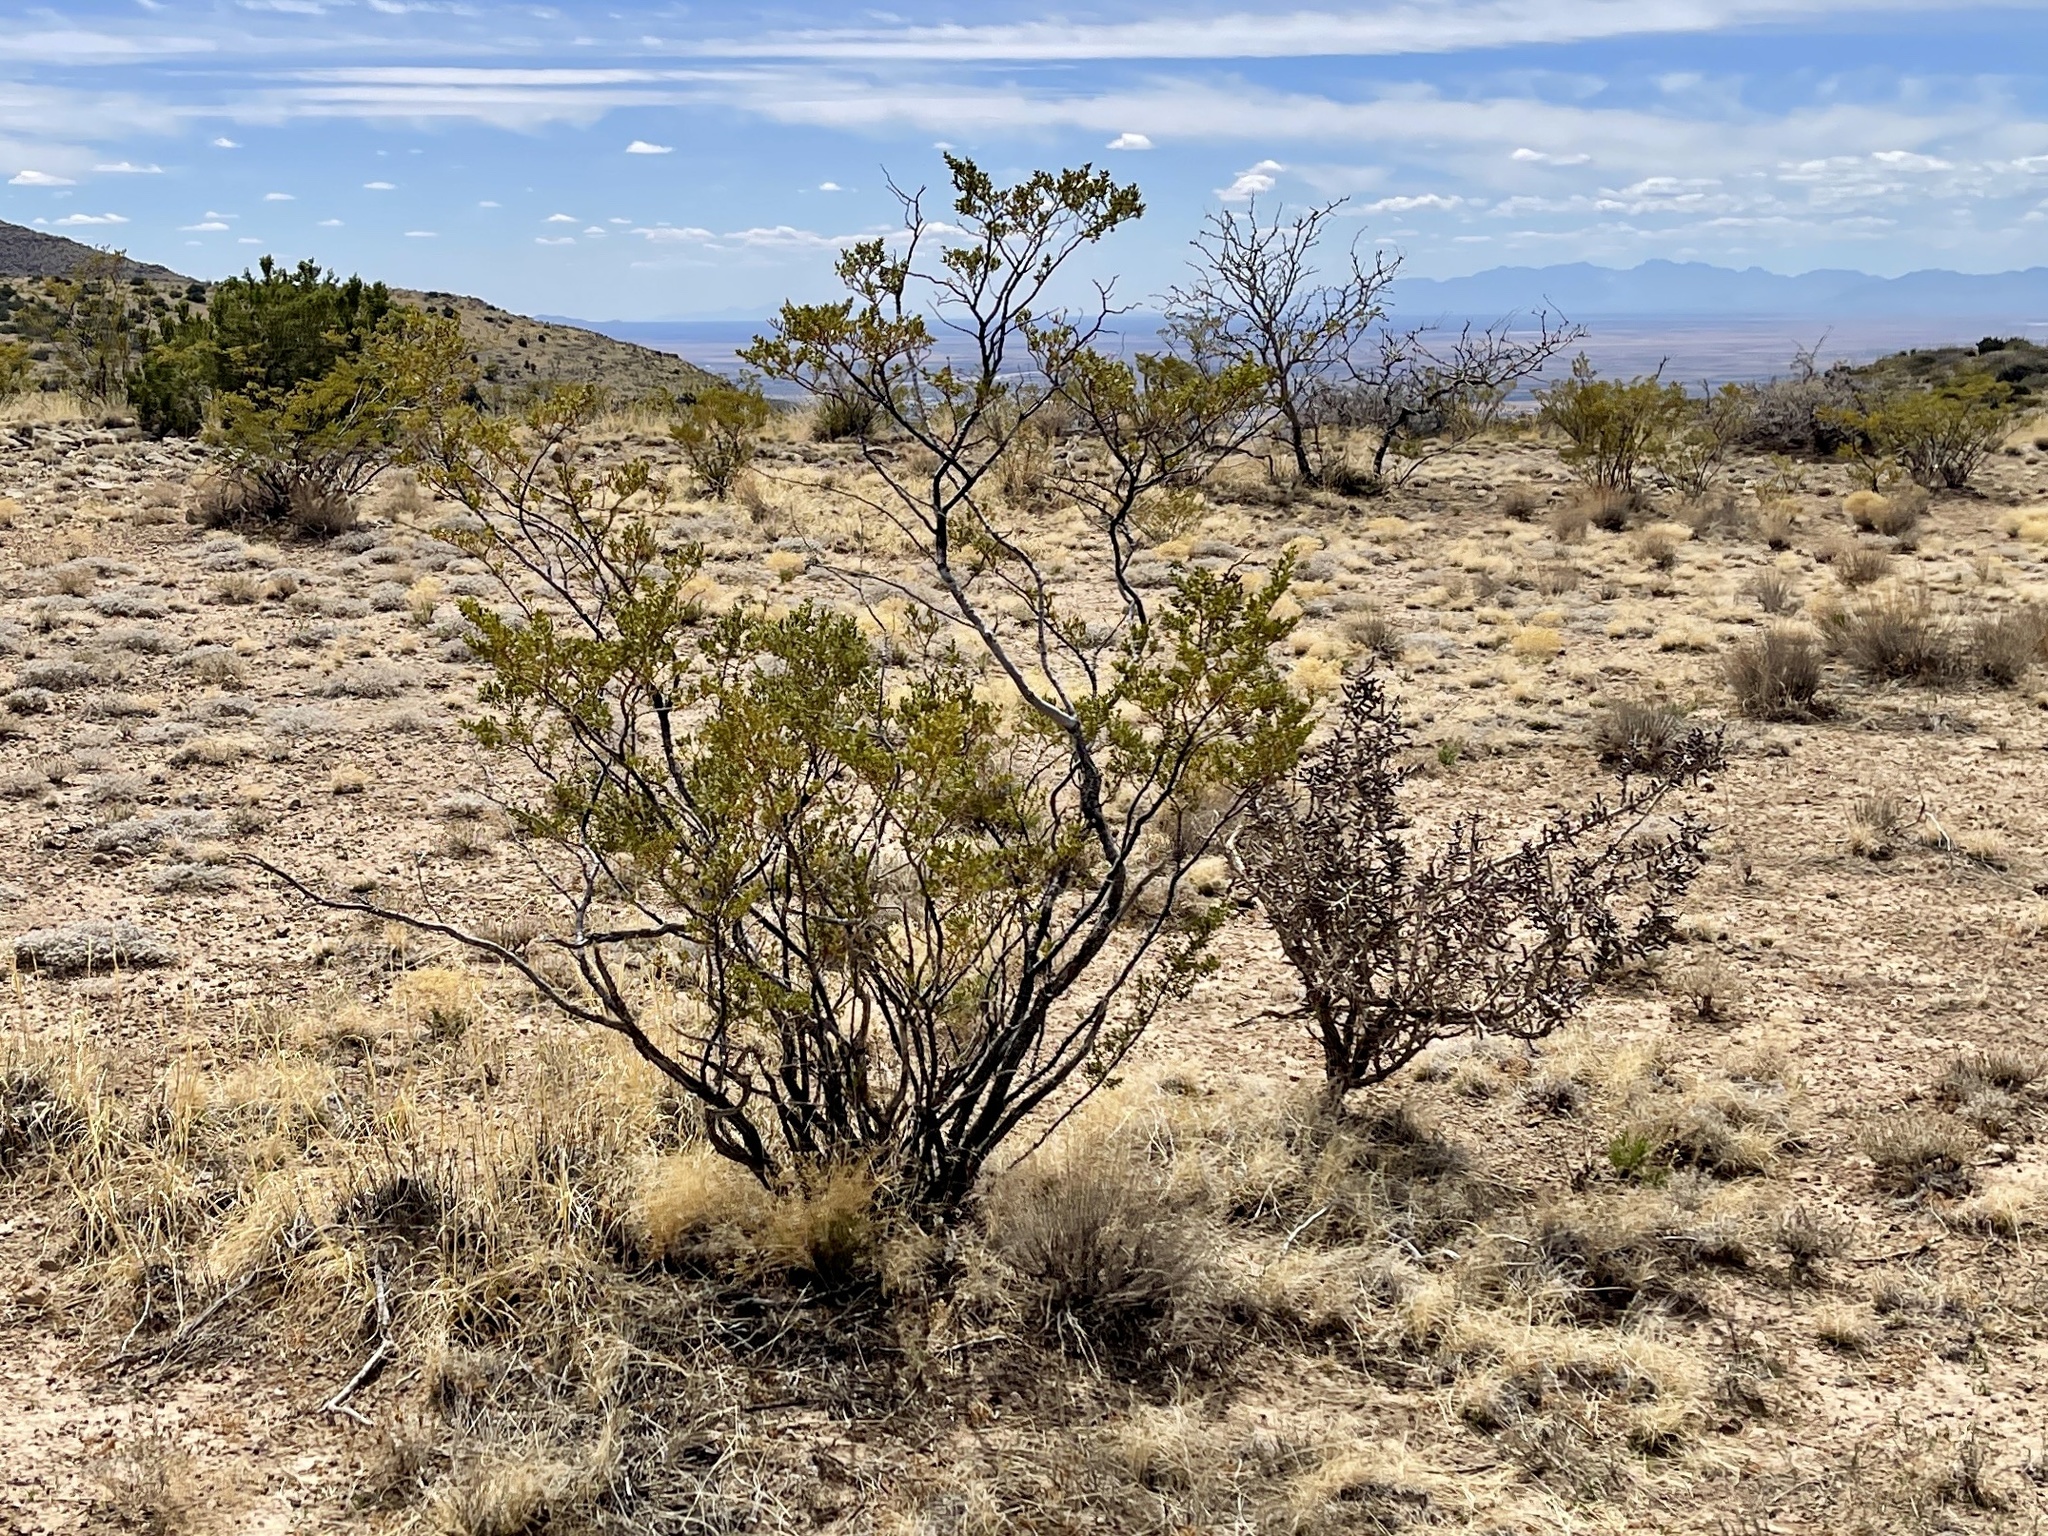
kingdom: Plantae
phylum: Tracheophyta
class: Magnoliopsida
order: Zygophyllales
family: Zygophyllaceae
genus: Larrea
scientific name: Larrea tridentata
